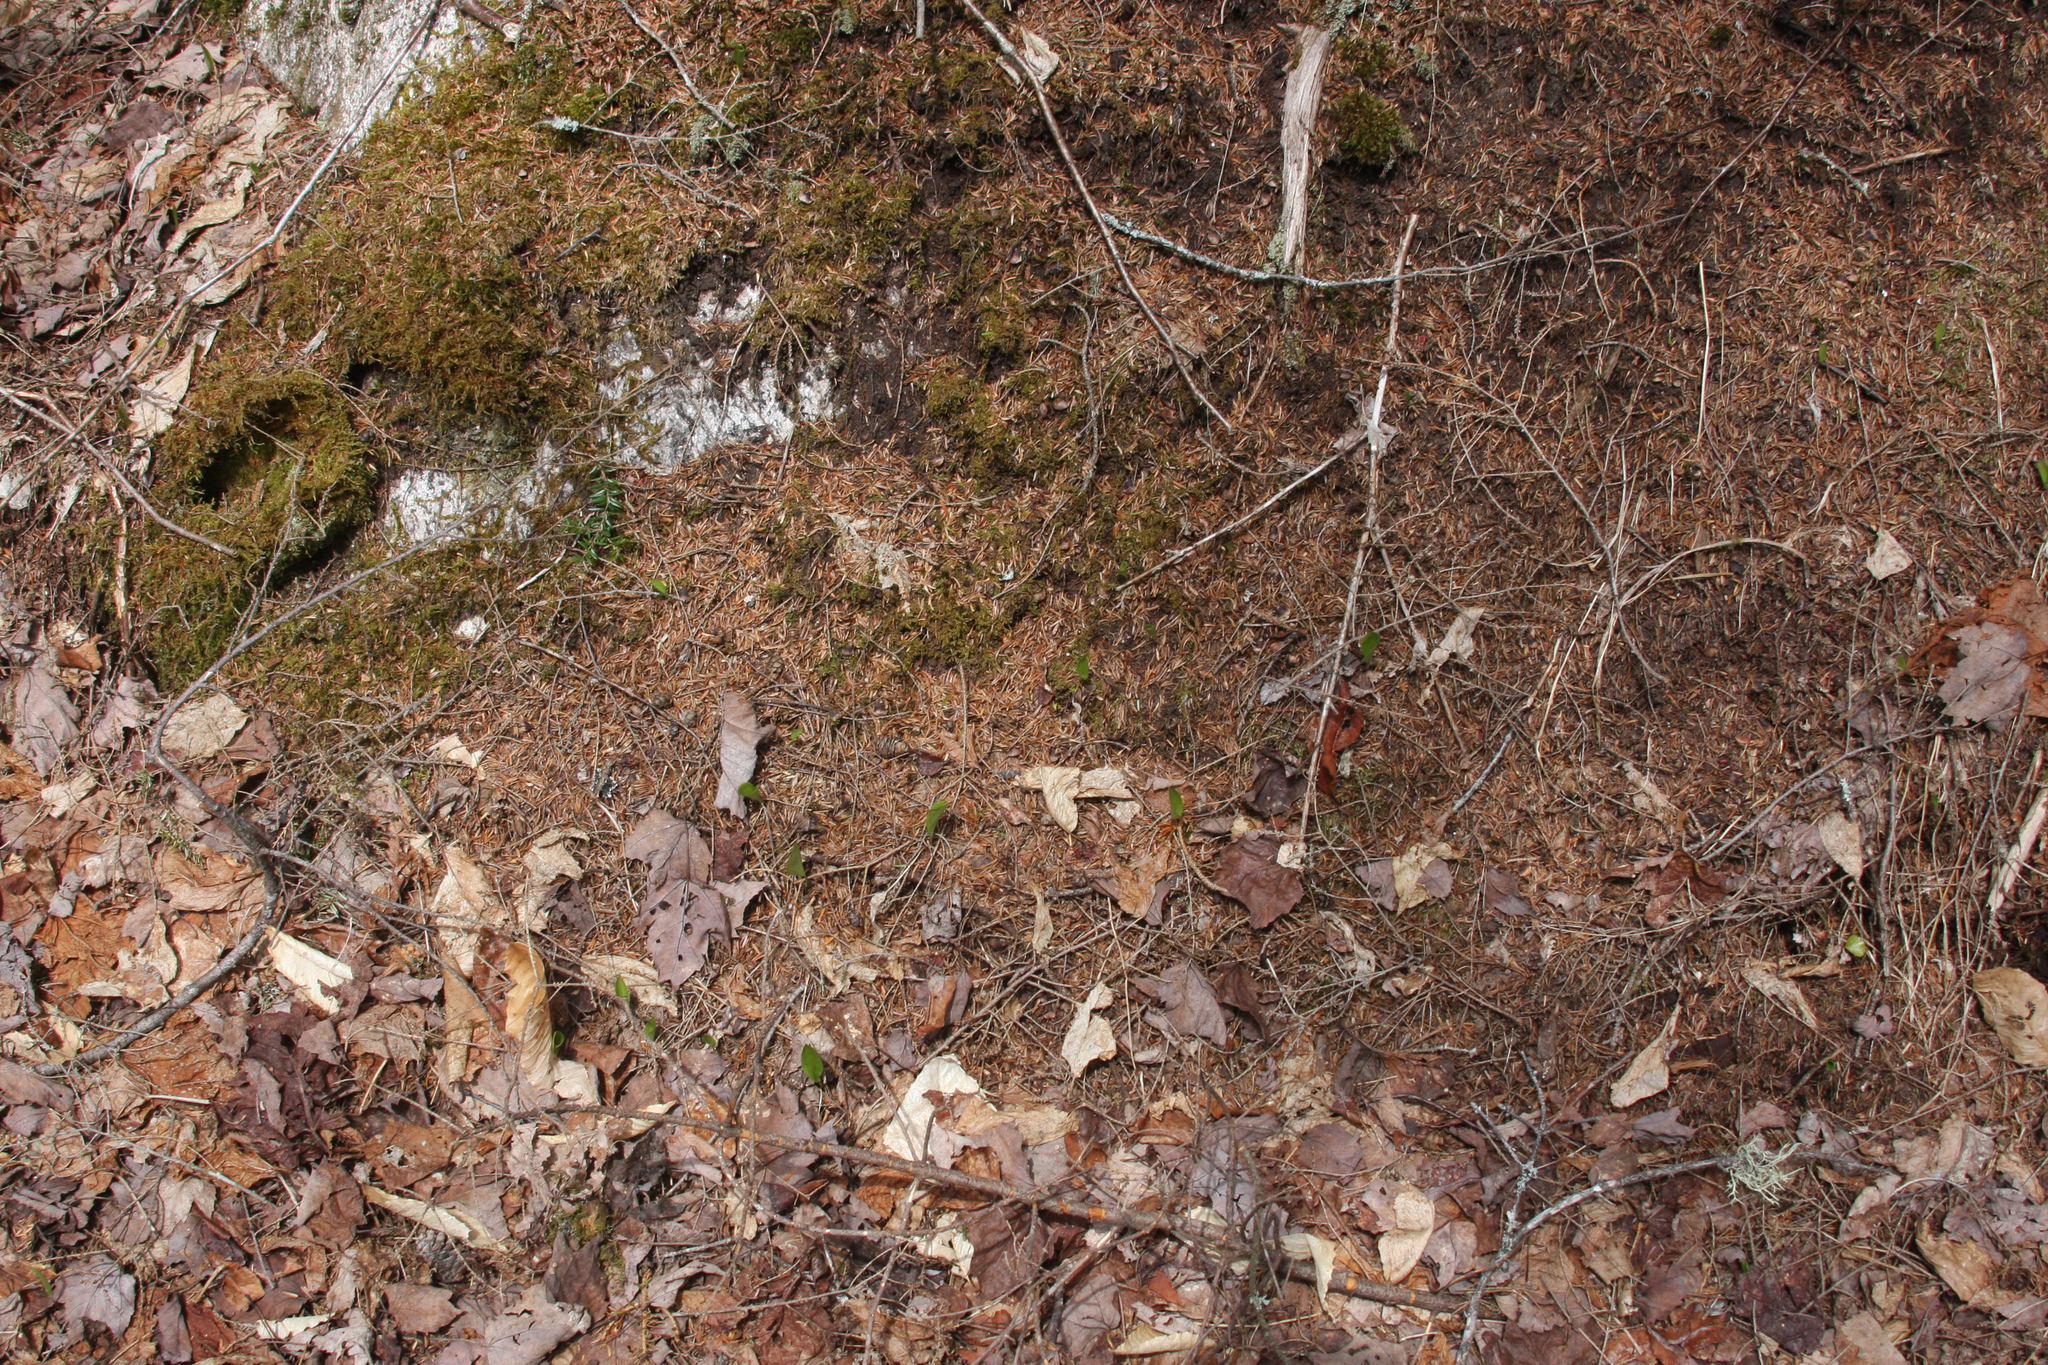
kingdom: Plantae
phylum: Tracheophyta
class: Liliopsida
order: Asparagales
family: Asparagaceae
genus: Maianthemum
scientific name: Maianthemum canadense
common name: False lily-of-the-valley
